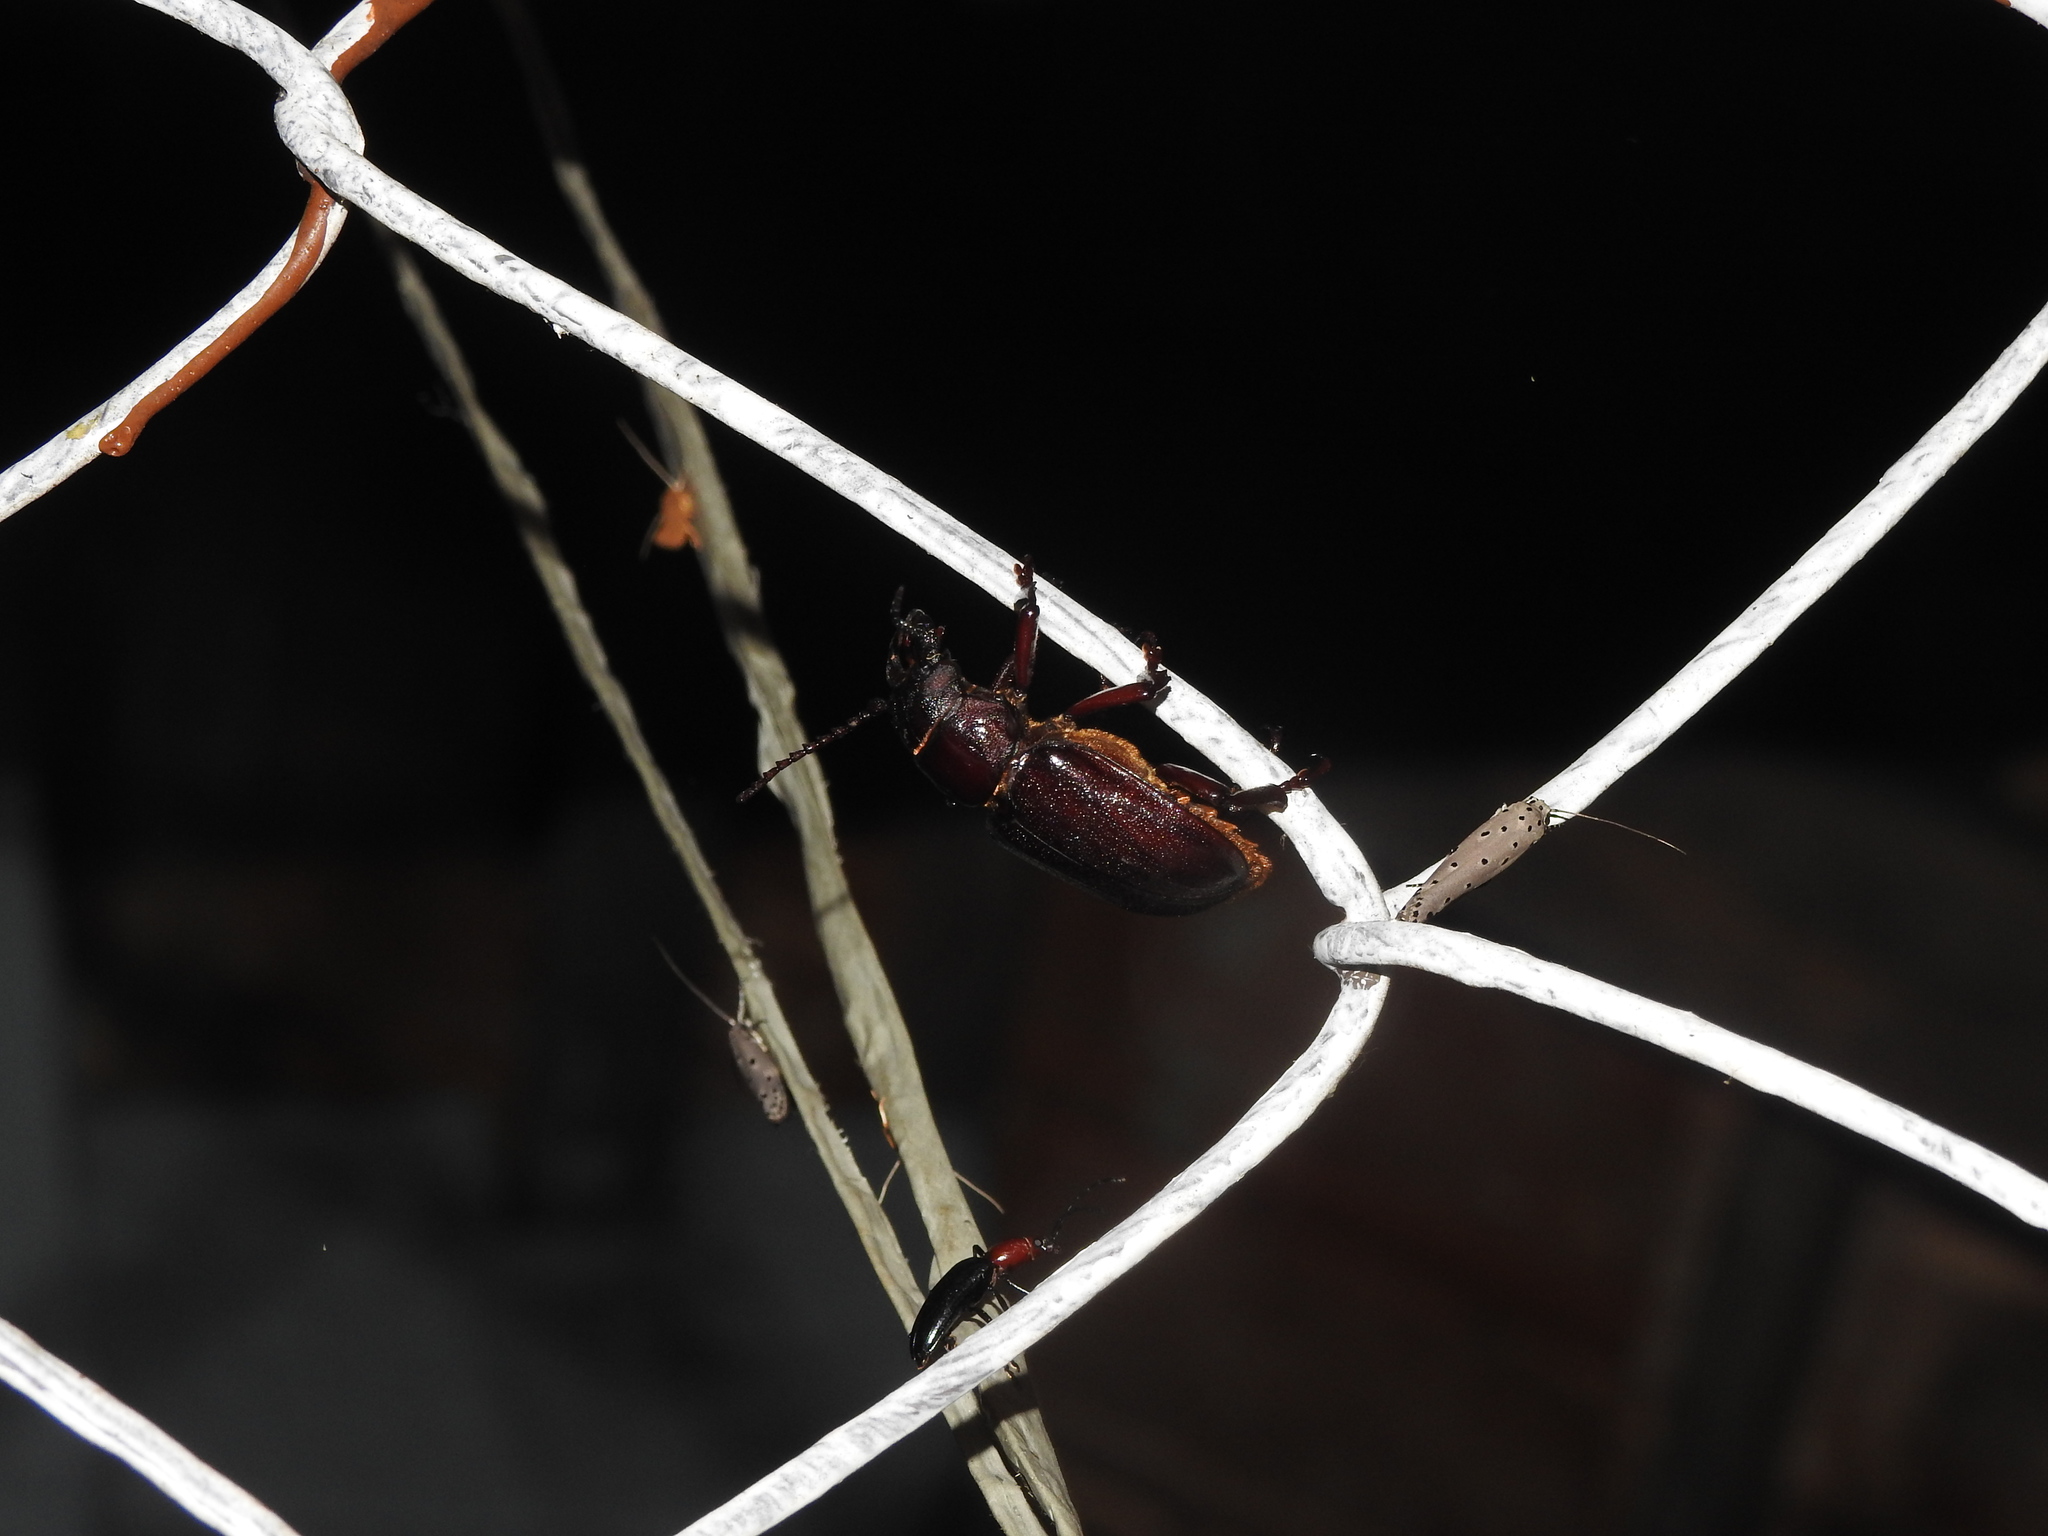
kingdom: Animalia
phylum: Arthropoda
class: Insecta
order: Coleoptera
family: Erotylidae
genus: Fatua
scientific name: Fatua
